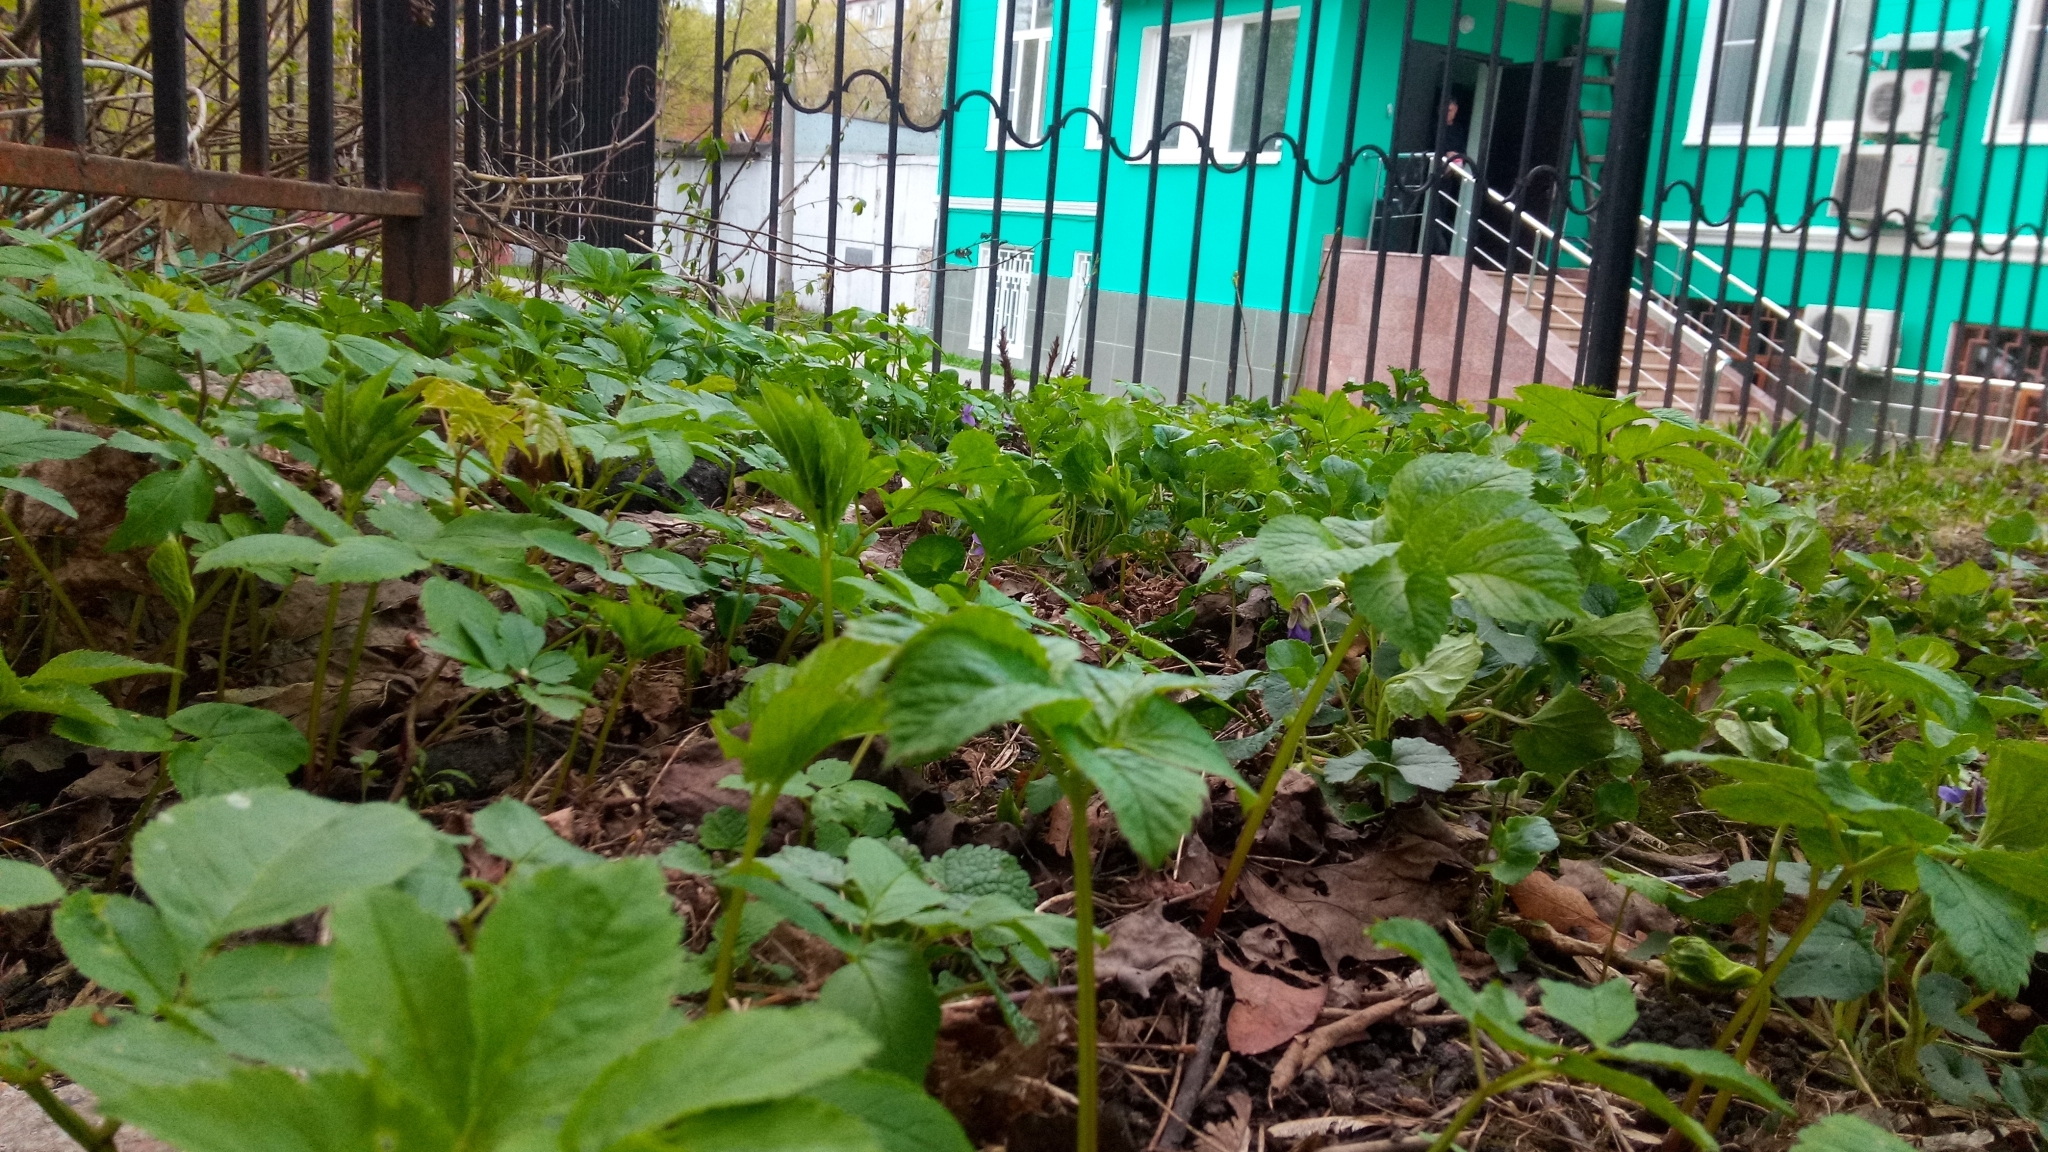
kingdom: Plantae
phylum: Tracheophyta
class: Magnoliopsida
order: Apiales
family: Apiaceae
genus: Aegopodium
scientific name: Aegopodium podagraria
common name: Ground-elder
